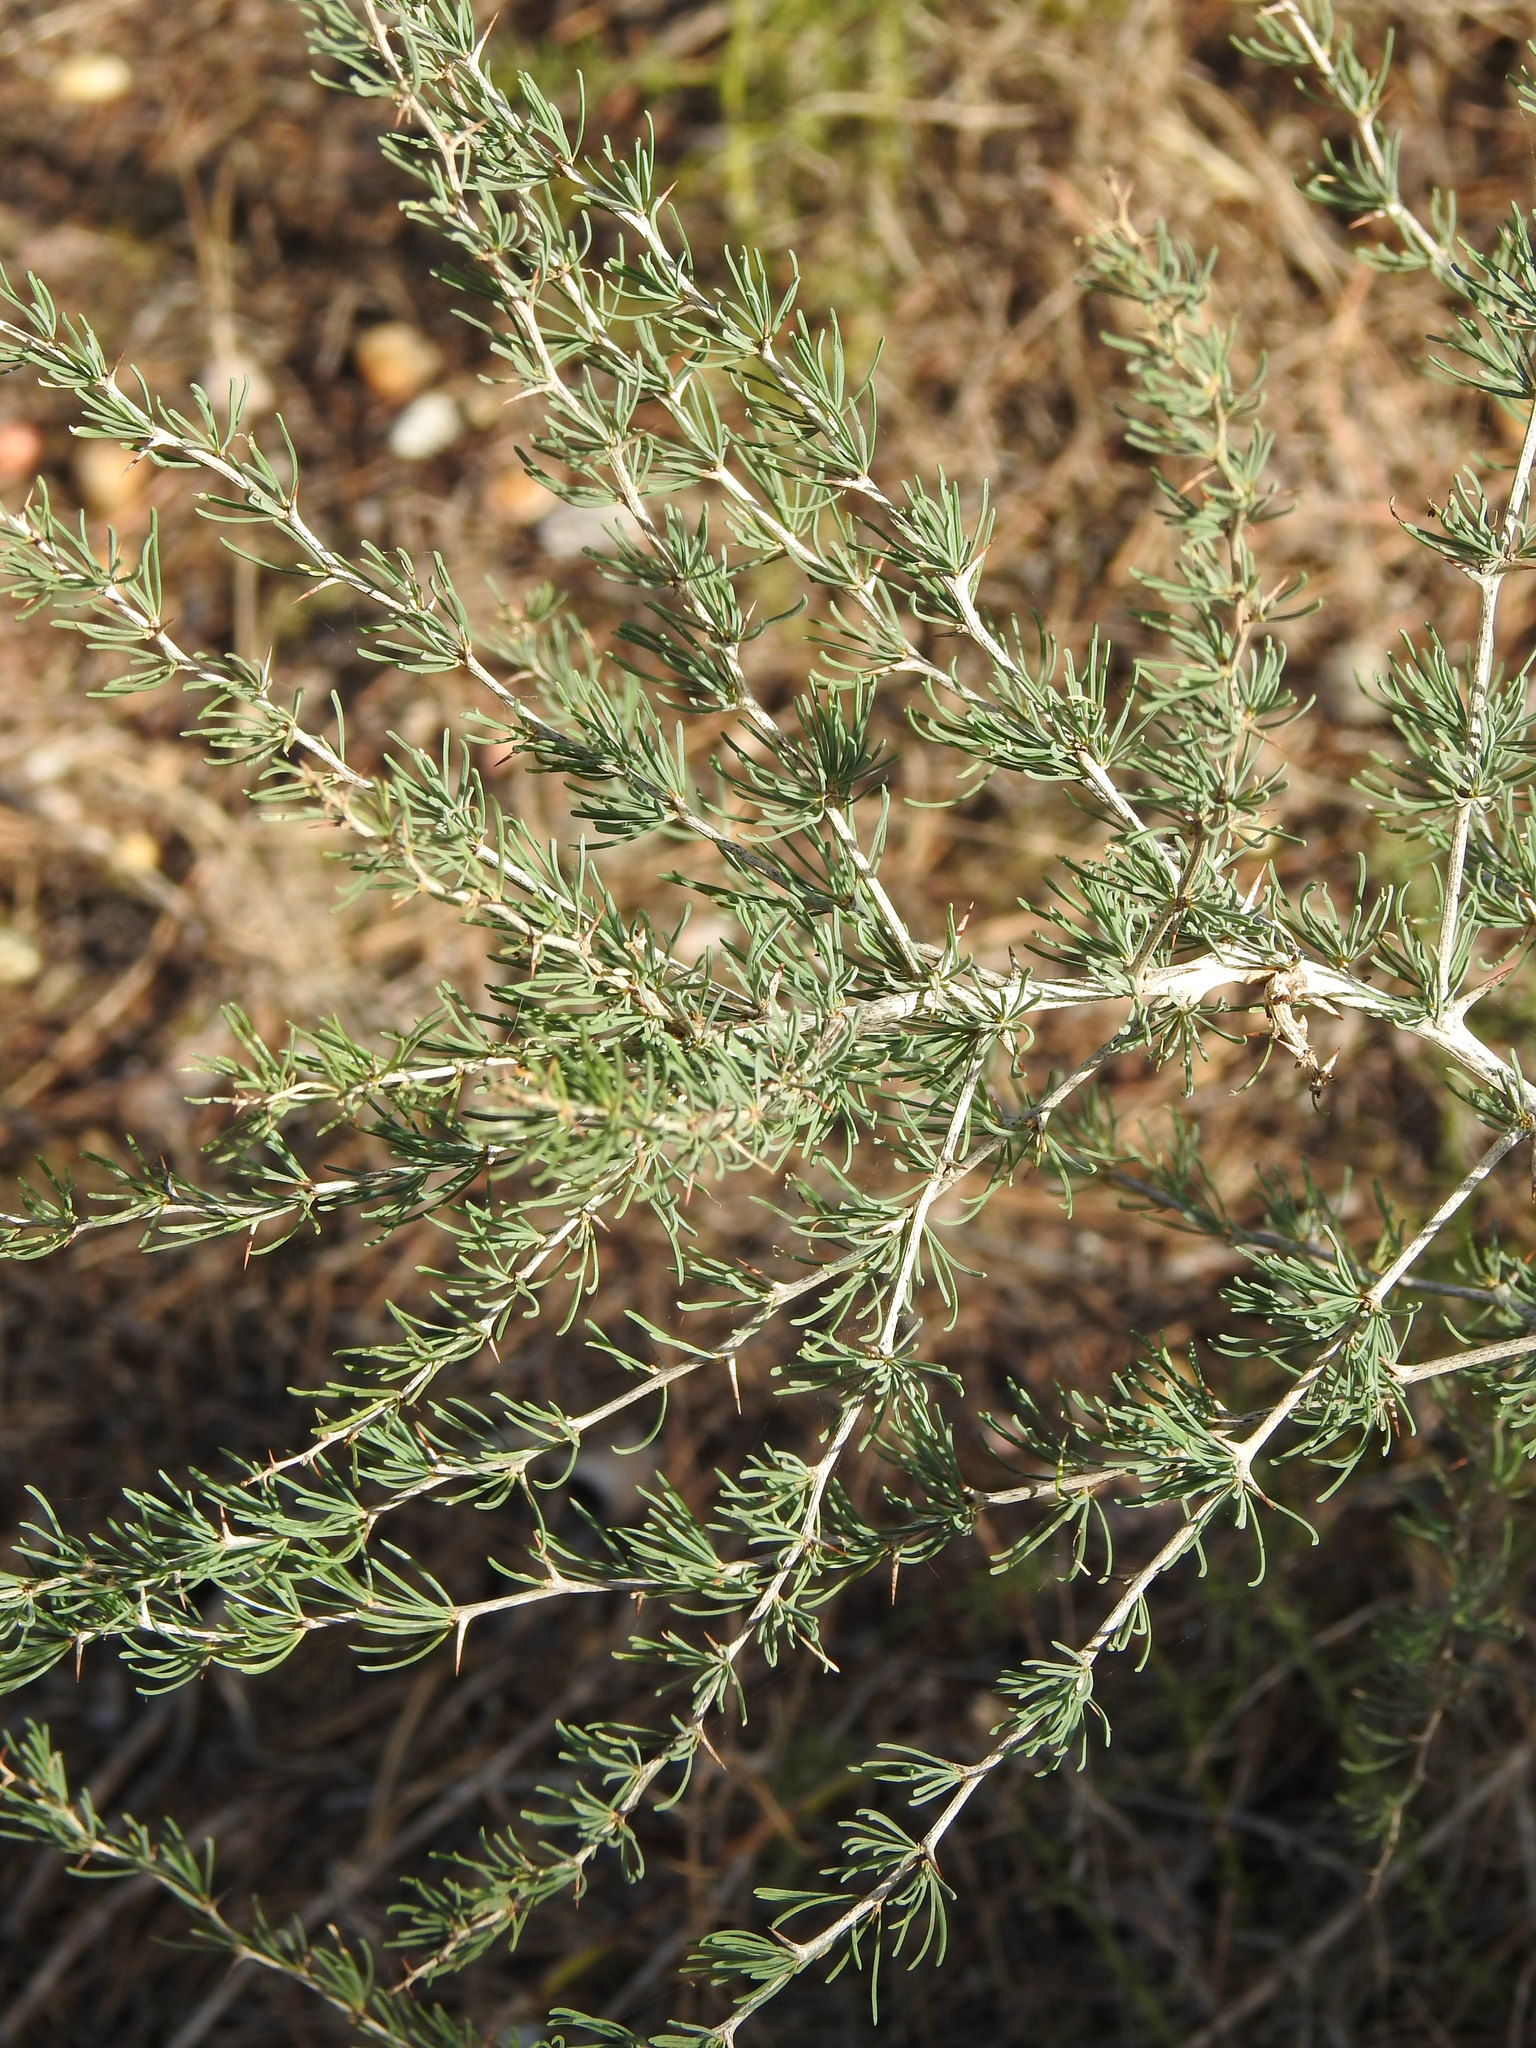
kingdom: Plantae
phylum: Tracheophyta
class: Liliopsida
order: Asparagales
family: Asparagaceae
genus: Asparagus
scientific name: Asparagus albus
